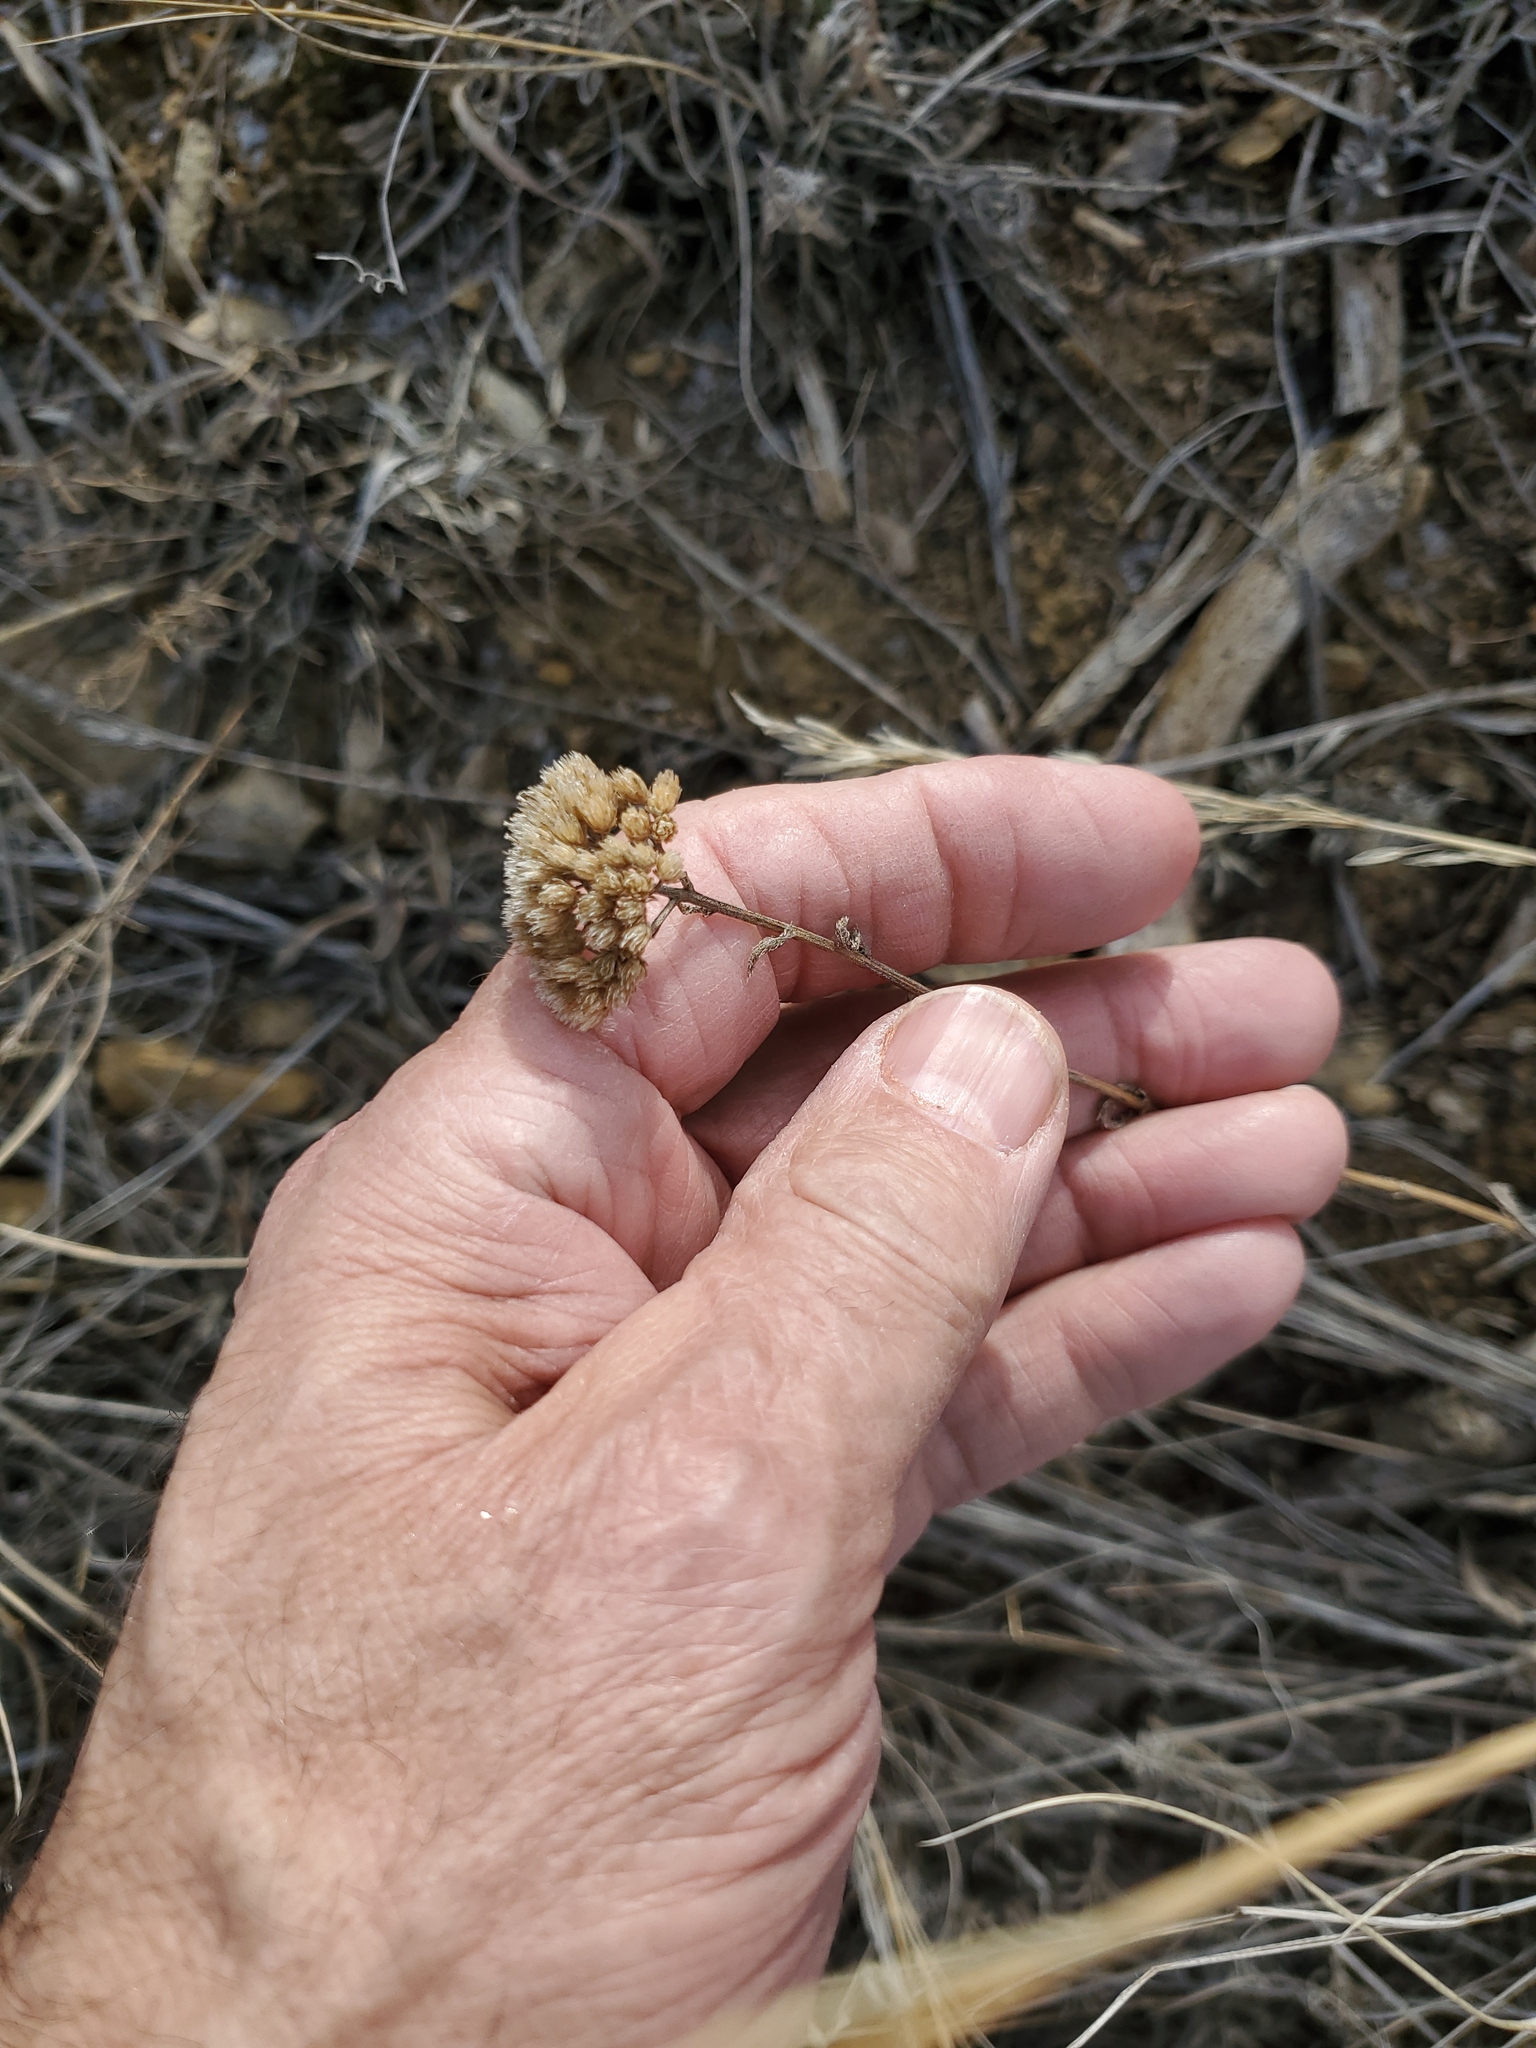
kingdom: Plantae
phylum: Tracheophyta
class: Magnoliopsida
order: Asterales
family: Asteraceae
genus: Achillea
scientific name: Achillea millefolium
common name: Yarrow
